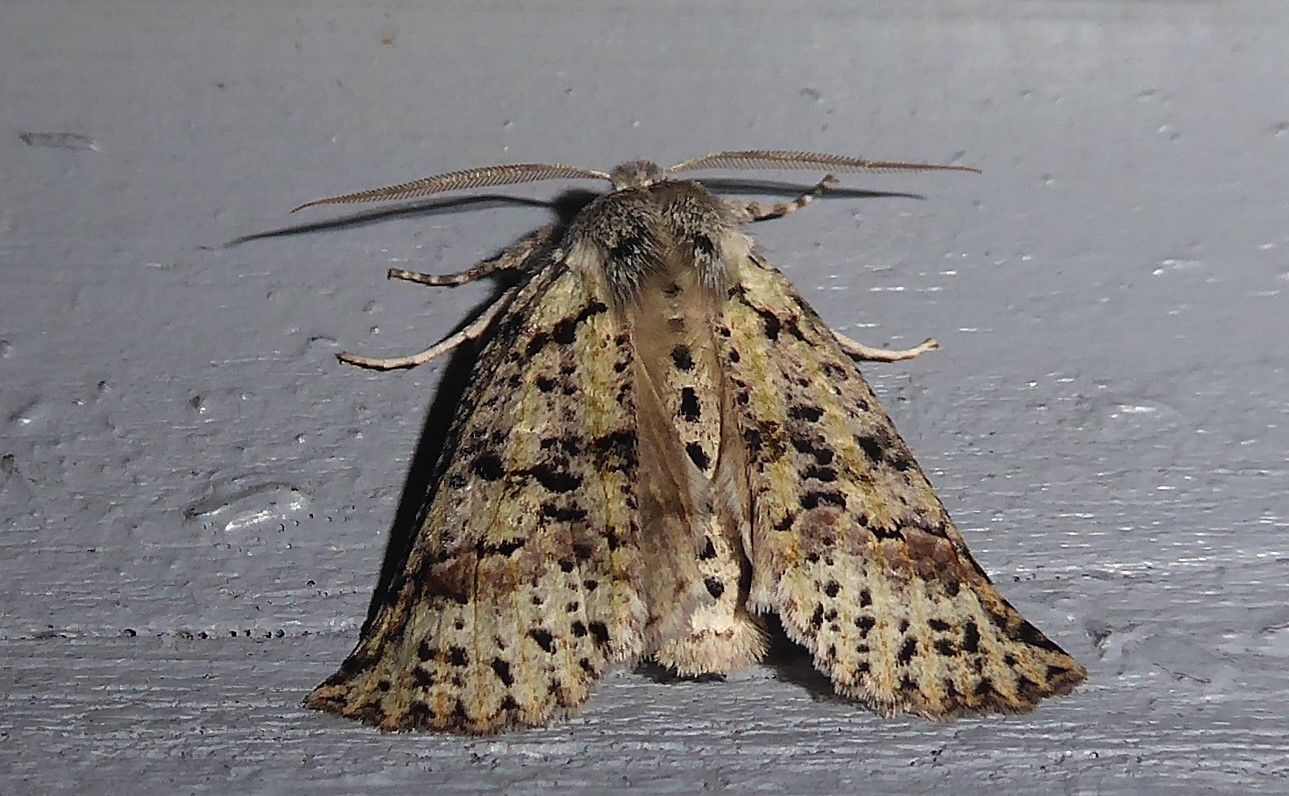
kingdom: Animalia
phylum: Arthropoda
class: Insecta
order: Lepidoptera
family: Geometridae
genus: Declana
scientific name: Declana floccosa
